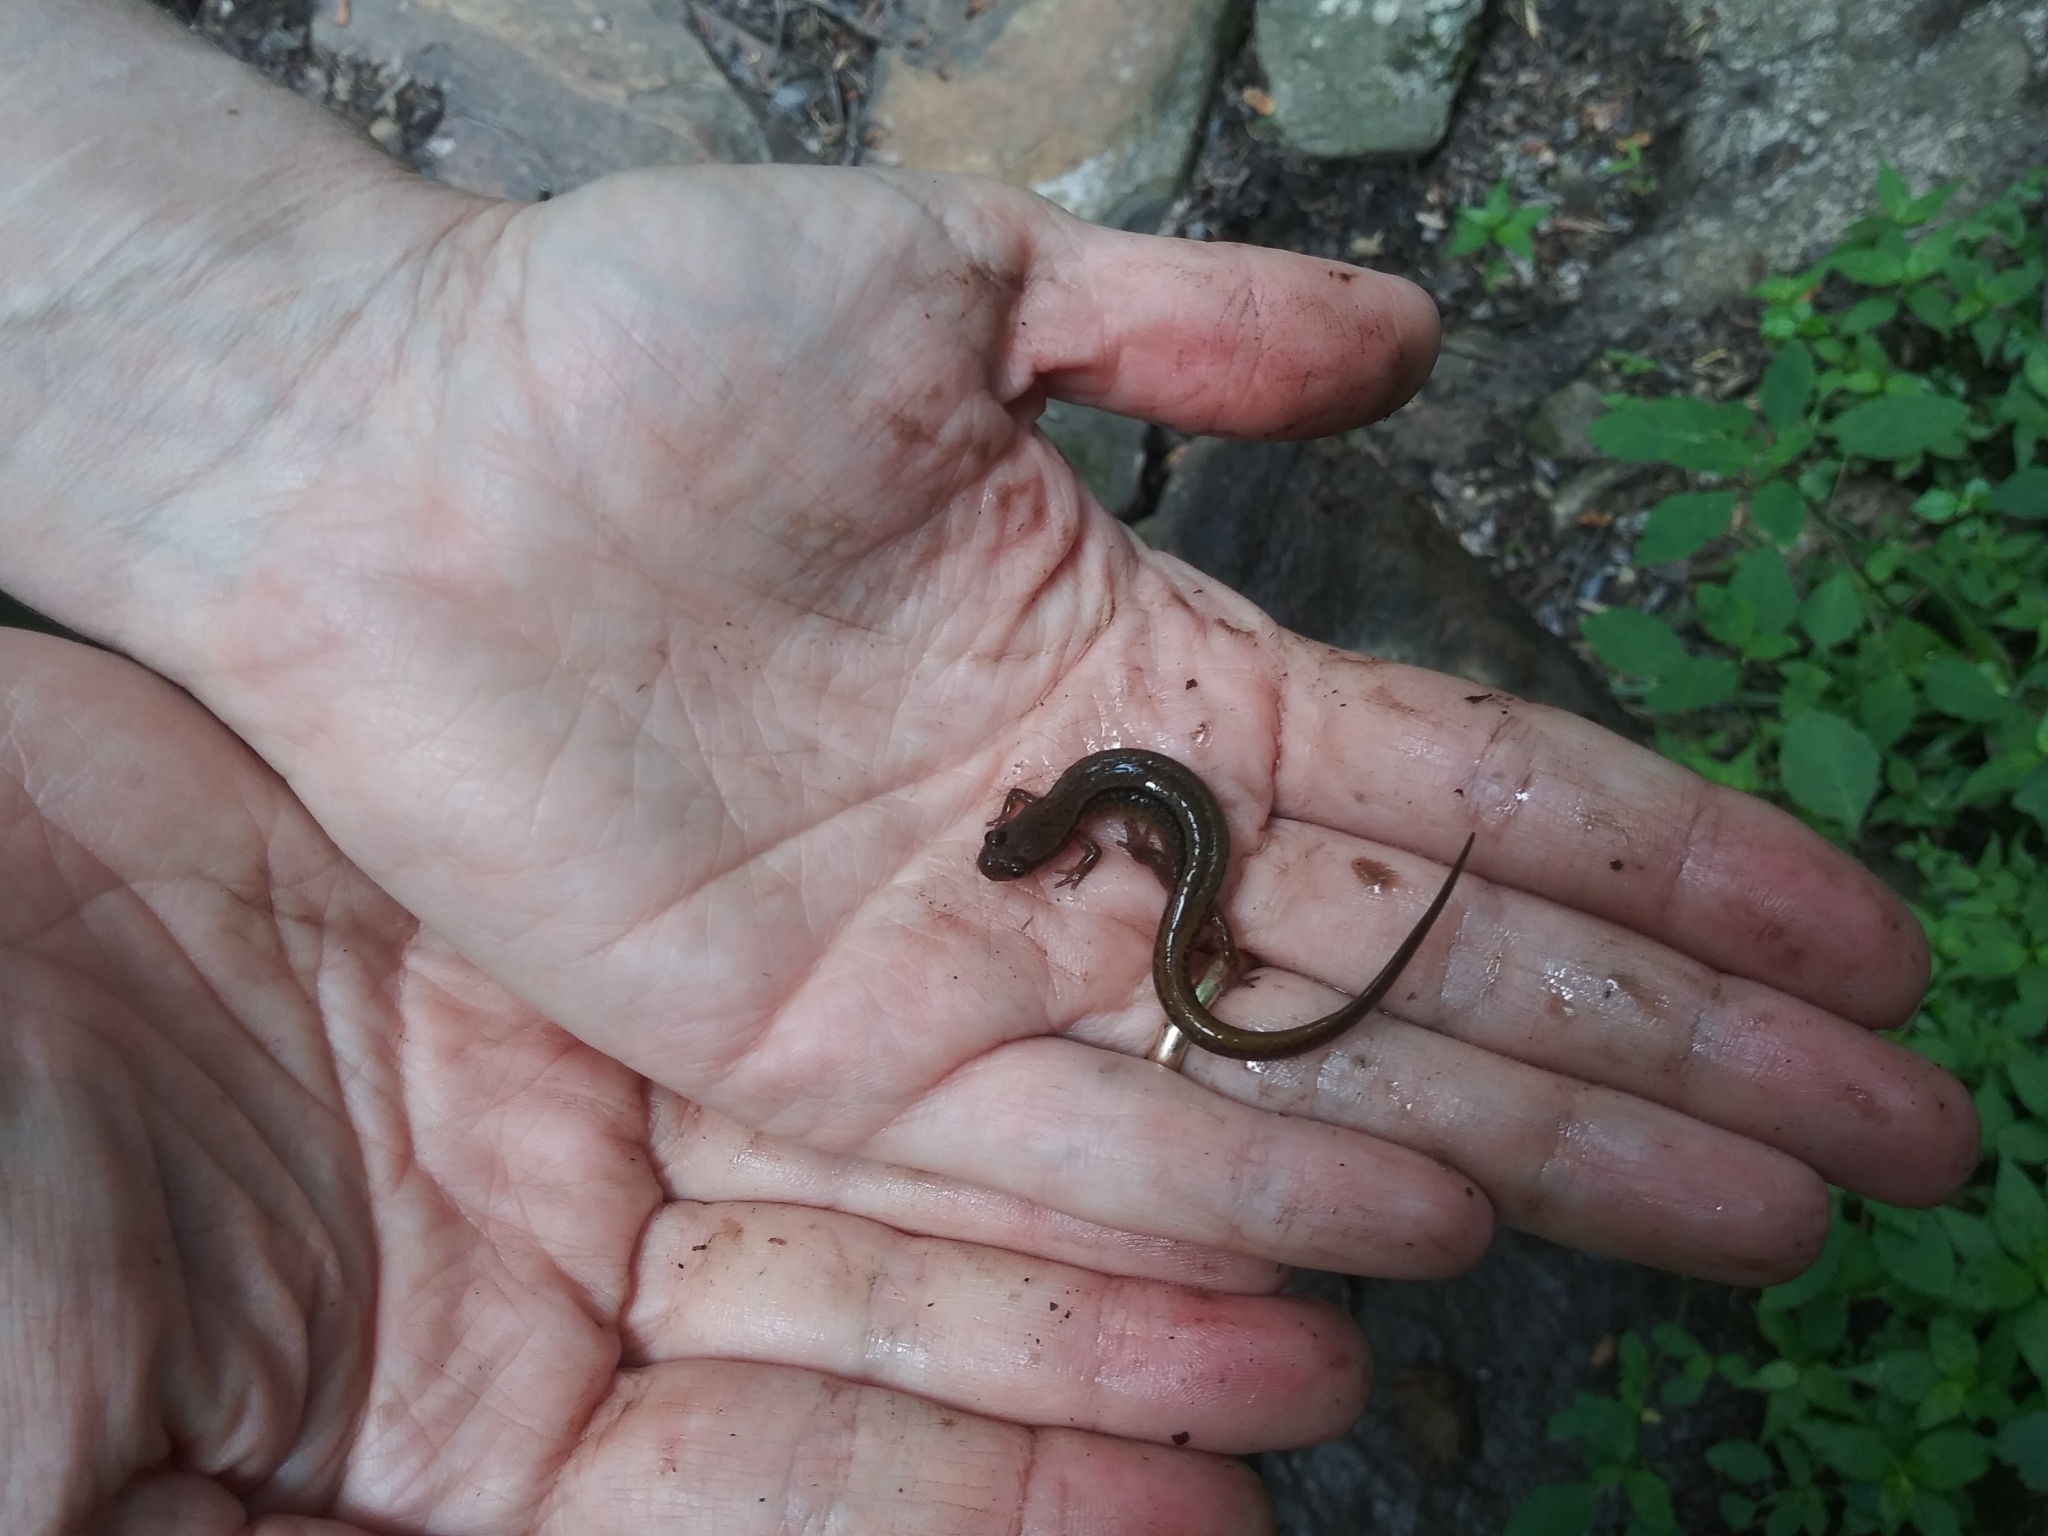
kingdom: Animalia
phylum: Chordata
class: Amphibia
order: Caudata
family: Plethodontidae
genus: Eurycea
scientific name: Eurycea bislineata
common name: Northern two-lined salamander
